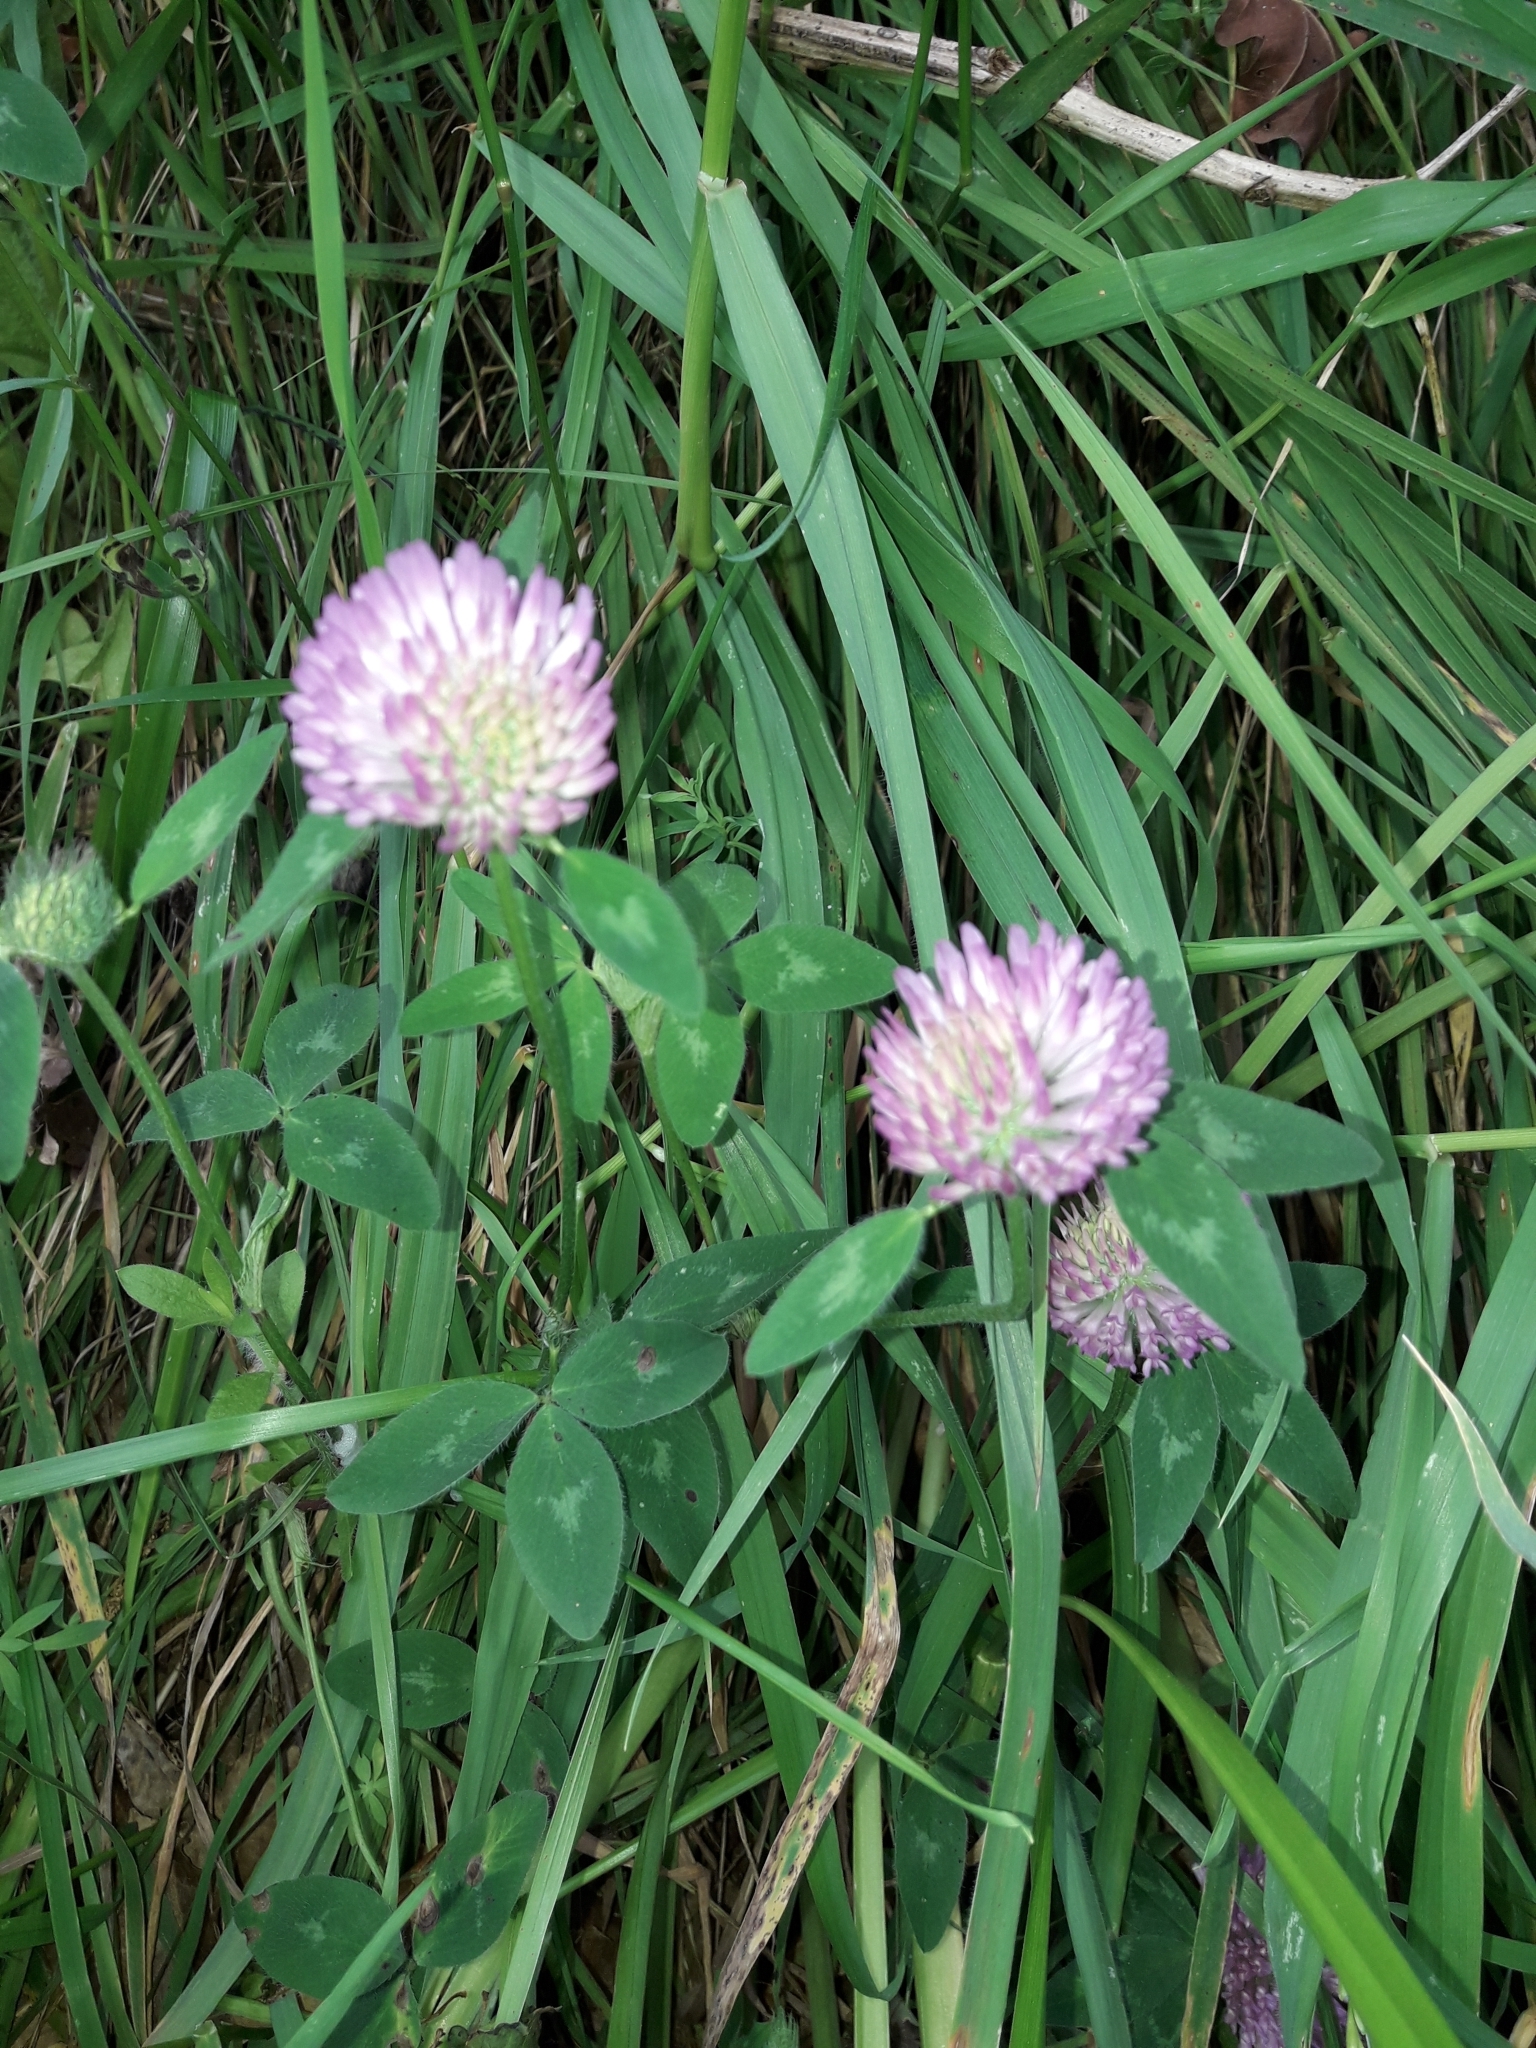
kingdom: Plantae
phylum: Tracheophyta
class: Magnoliopsida
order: Fabales
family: Fabaceae
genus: Trifolium
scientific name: Trifolium pratense
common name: Red clover
